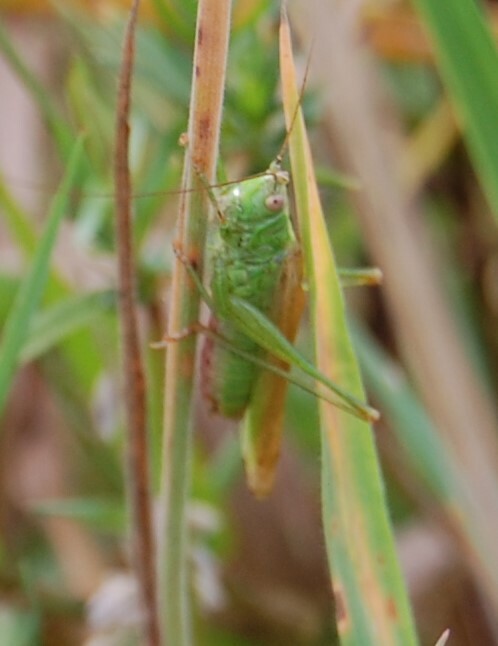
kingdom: Animalia
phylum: Arthropoda
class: Insecta
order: Orthoptera
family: Tettigoniidae
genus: Conocephalus
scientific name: Conocephalus fuscus
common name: Long-winged conehead
